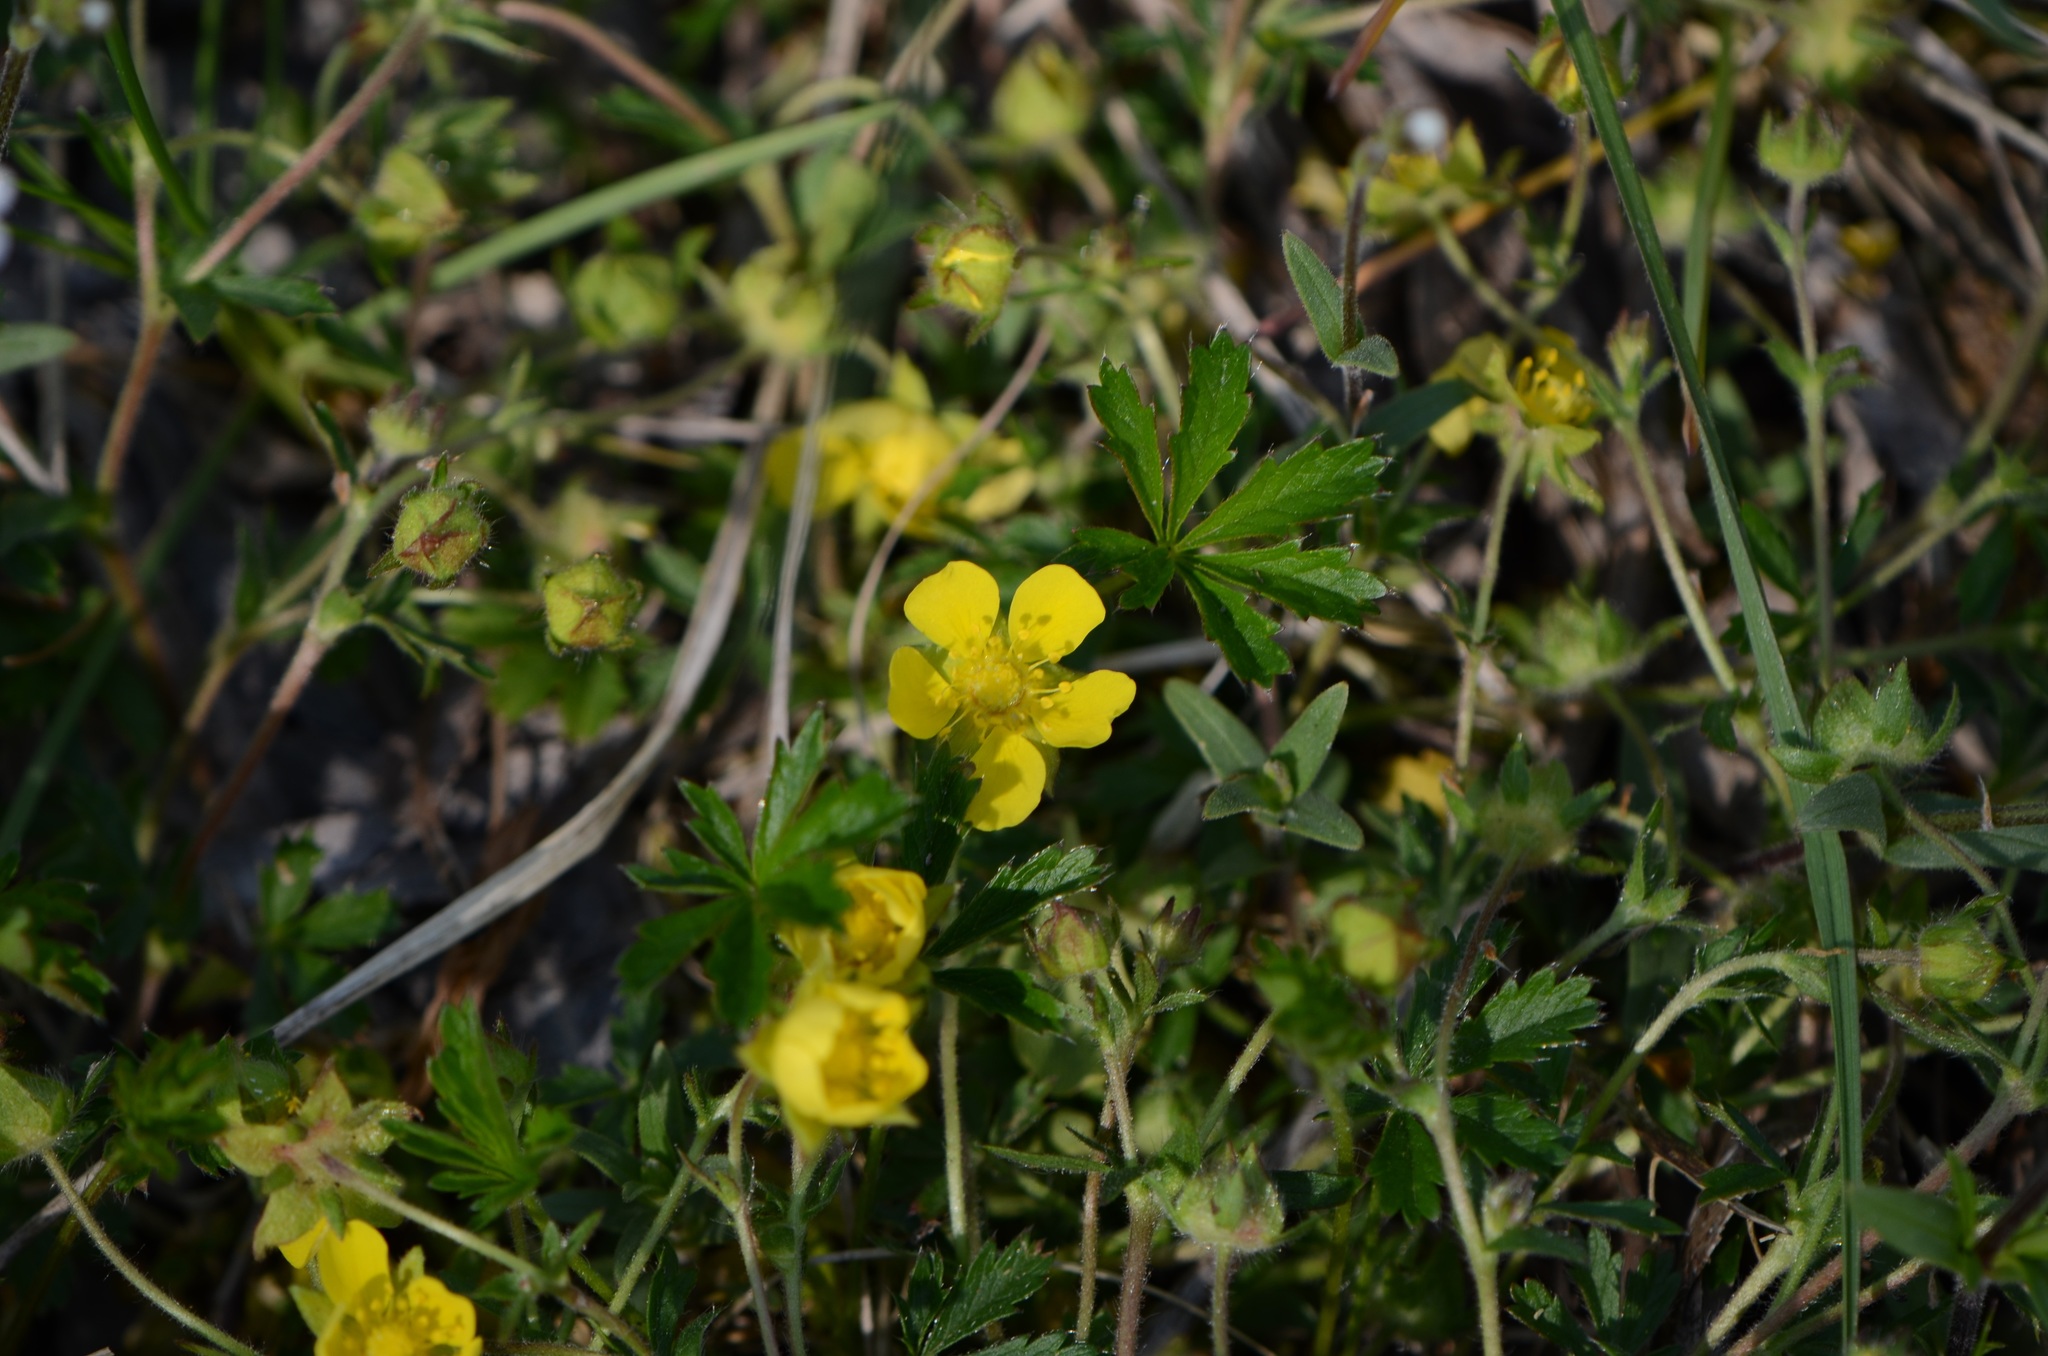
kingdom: Plantae
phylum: Tracheophyta
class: Magnoliopsida
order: Rosales
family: Rosaceae
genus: Potentilla
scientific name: Potentilla heptaphylla
